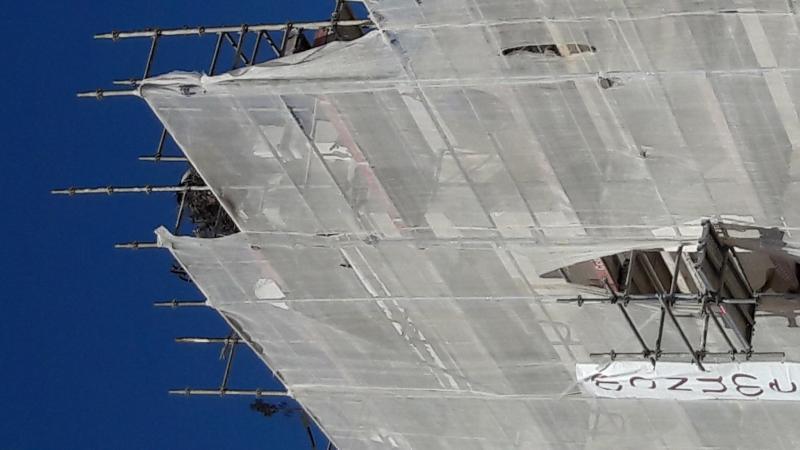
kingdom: Animalia
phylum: Chordata
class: Aves
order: Ciconiiformes
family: Ciconiidae
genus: Ciconia
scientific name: Ciconia ciconia
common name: White stork
